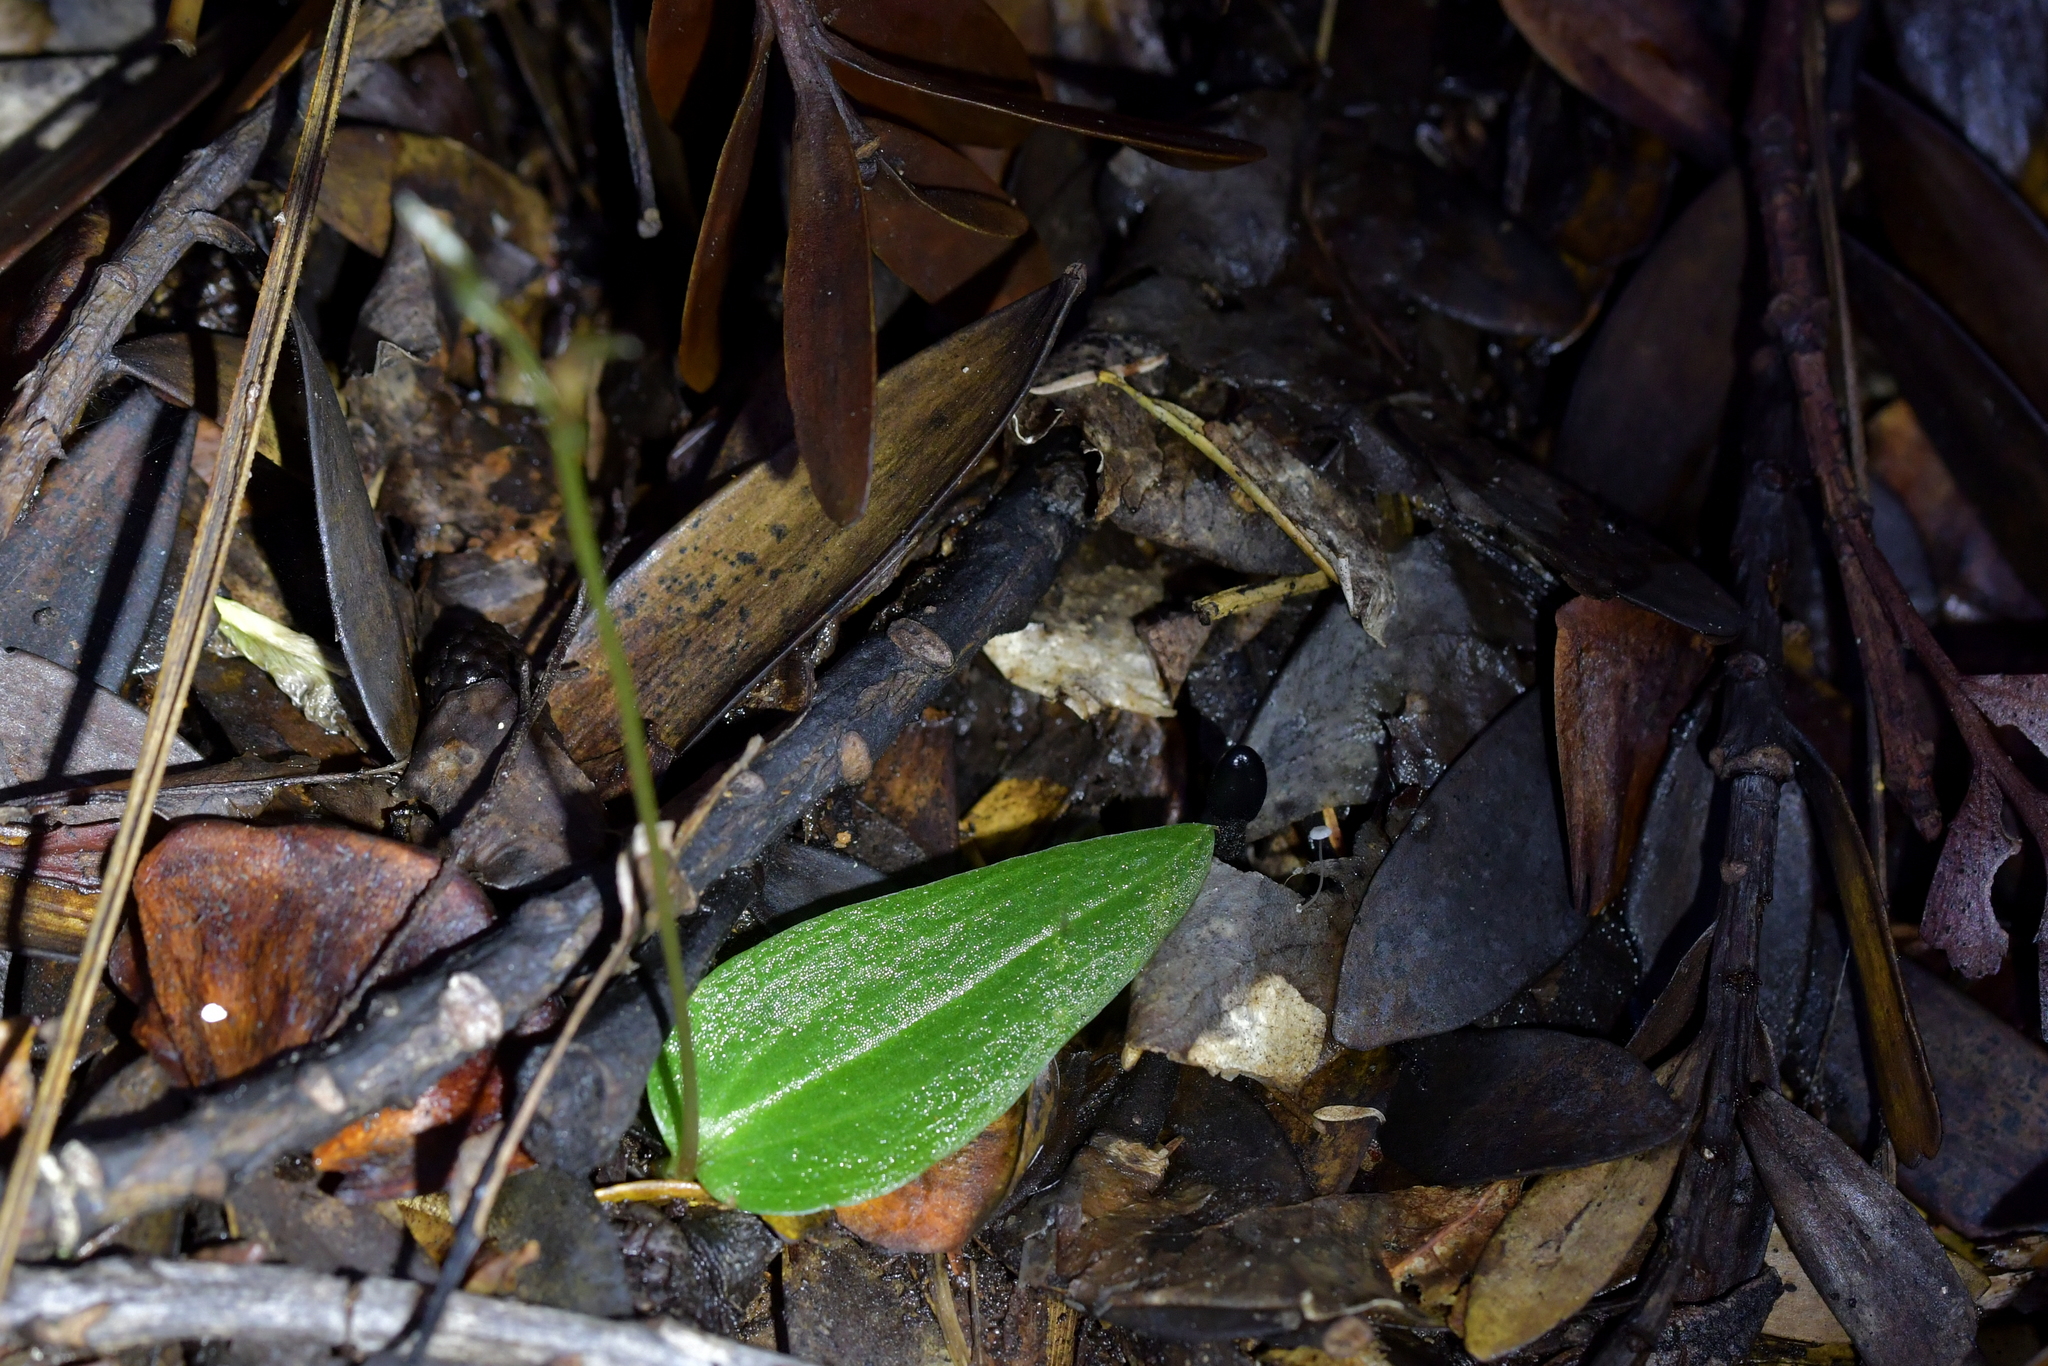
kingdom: Plantae
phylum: Tracheophyta
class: Liliopsida
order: Asparagales
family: Orchidaceae
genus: Cyrtostylis
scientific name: Cyrtostylis oblonga
